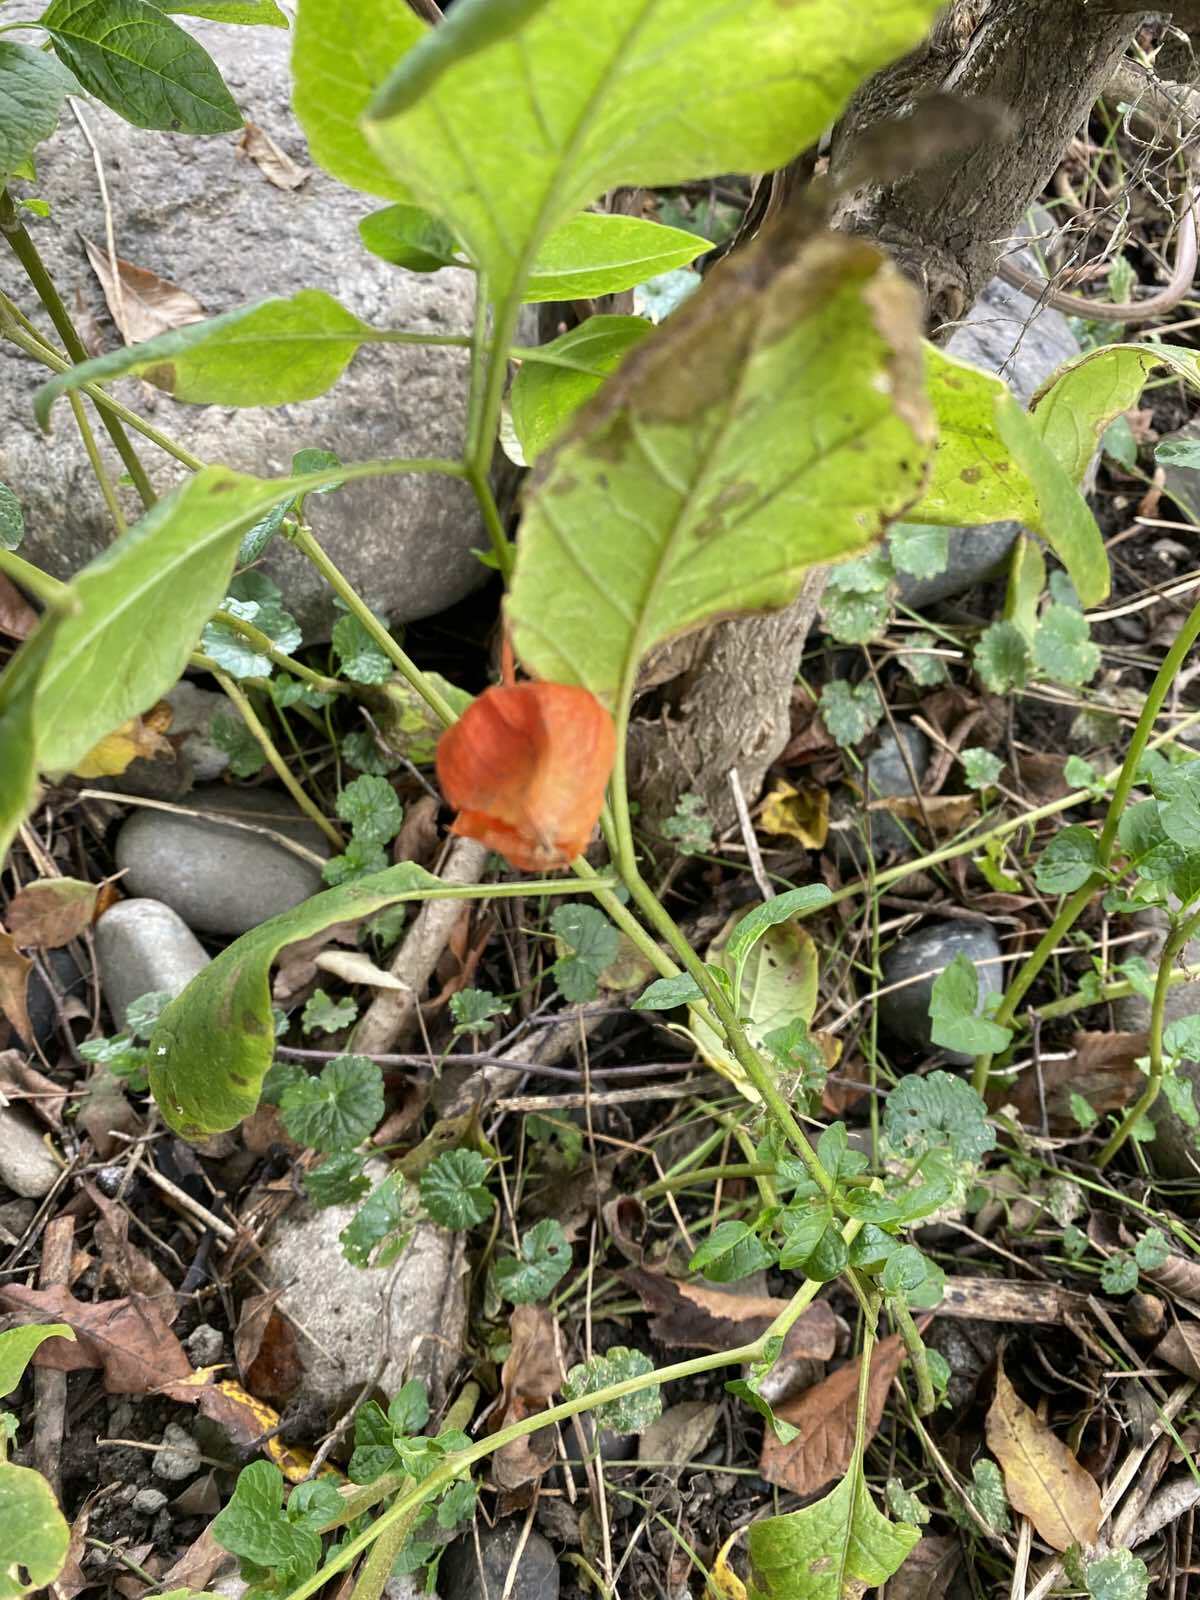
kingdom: Plantae
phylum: Tracheophyta
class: Magnoliopsida
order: Solanales
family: Solanaceae
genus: Alkekengi
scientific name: Alkekengi officinarum
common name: Japanese-lantern
